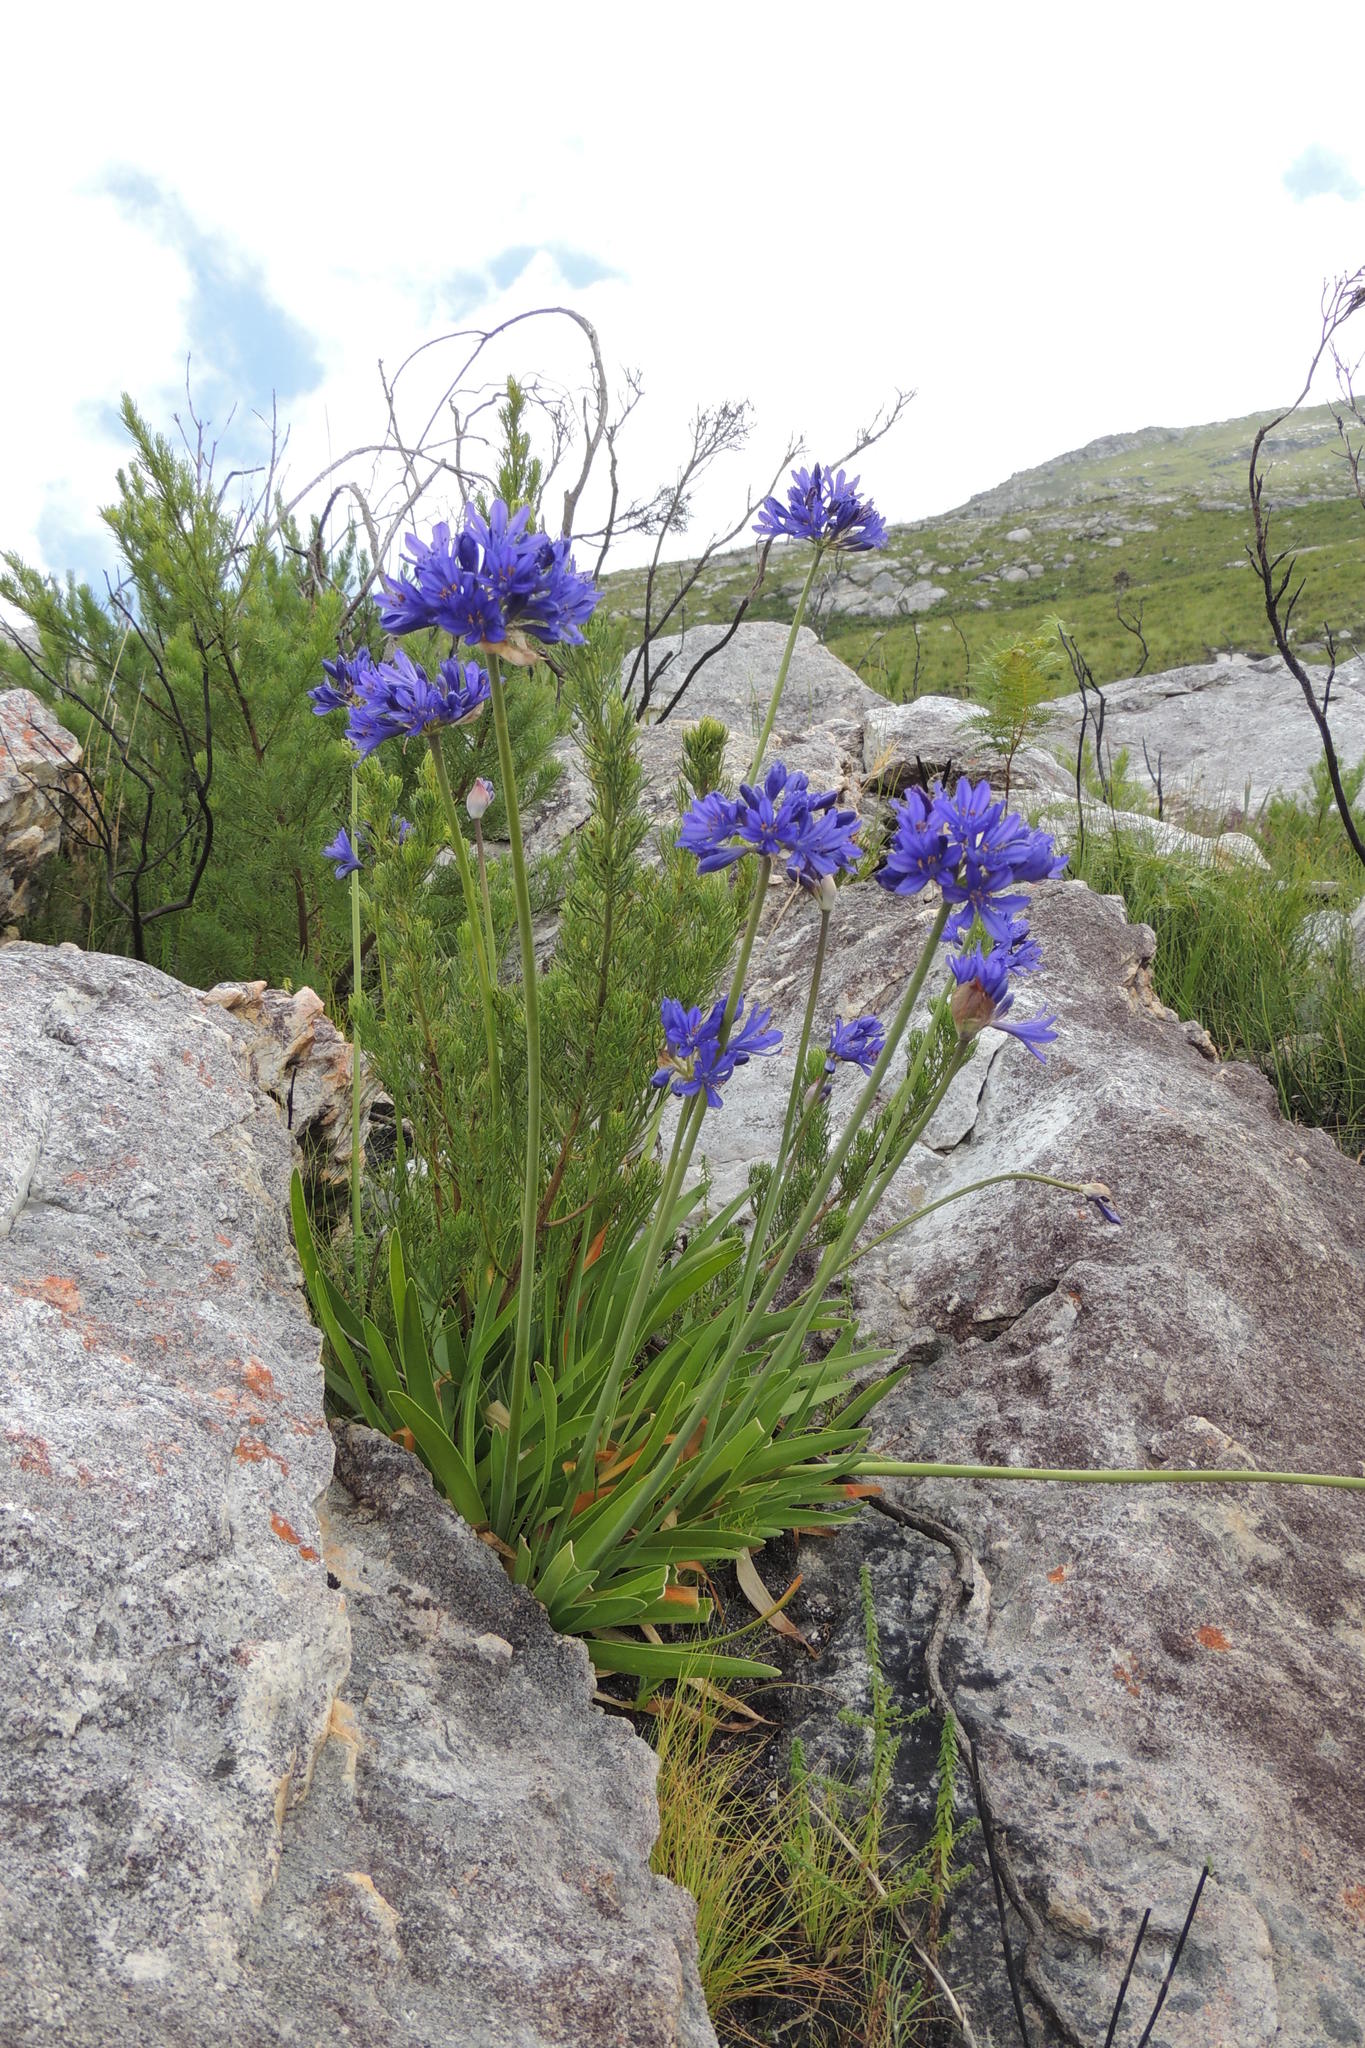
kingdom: Plantae
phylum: Tracheophyta
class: Liliopsida
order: Asparagales
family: Amaryllidaceae
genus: Agapanthus
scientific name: Agapanthus africanus
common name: Lily-of-the-nile
